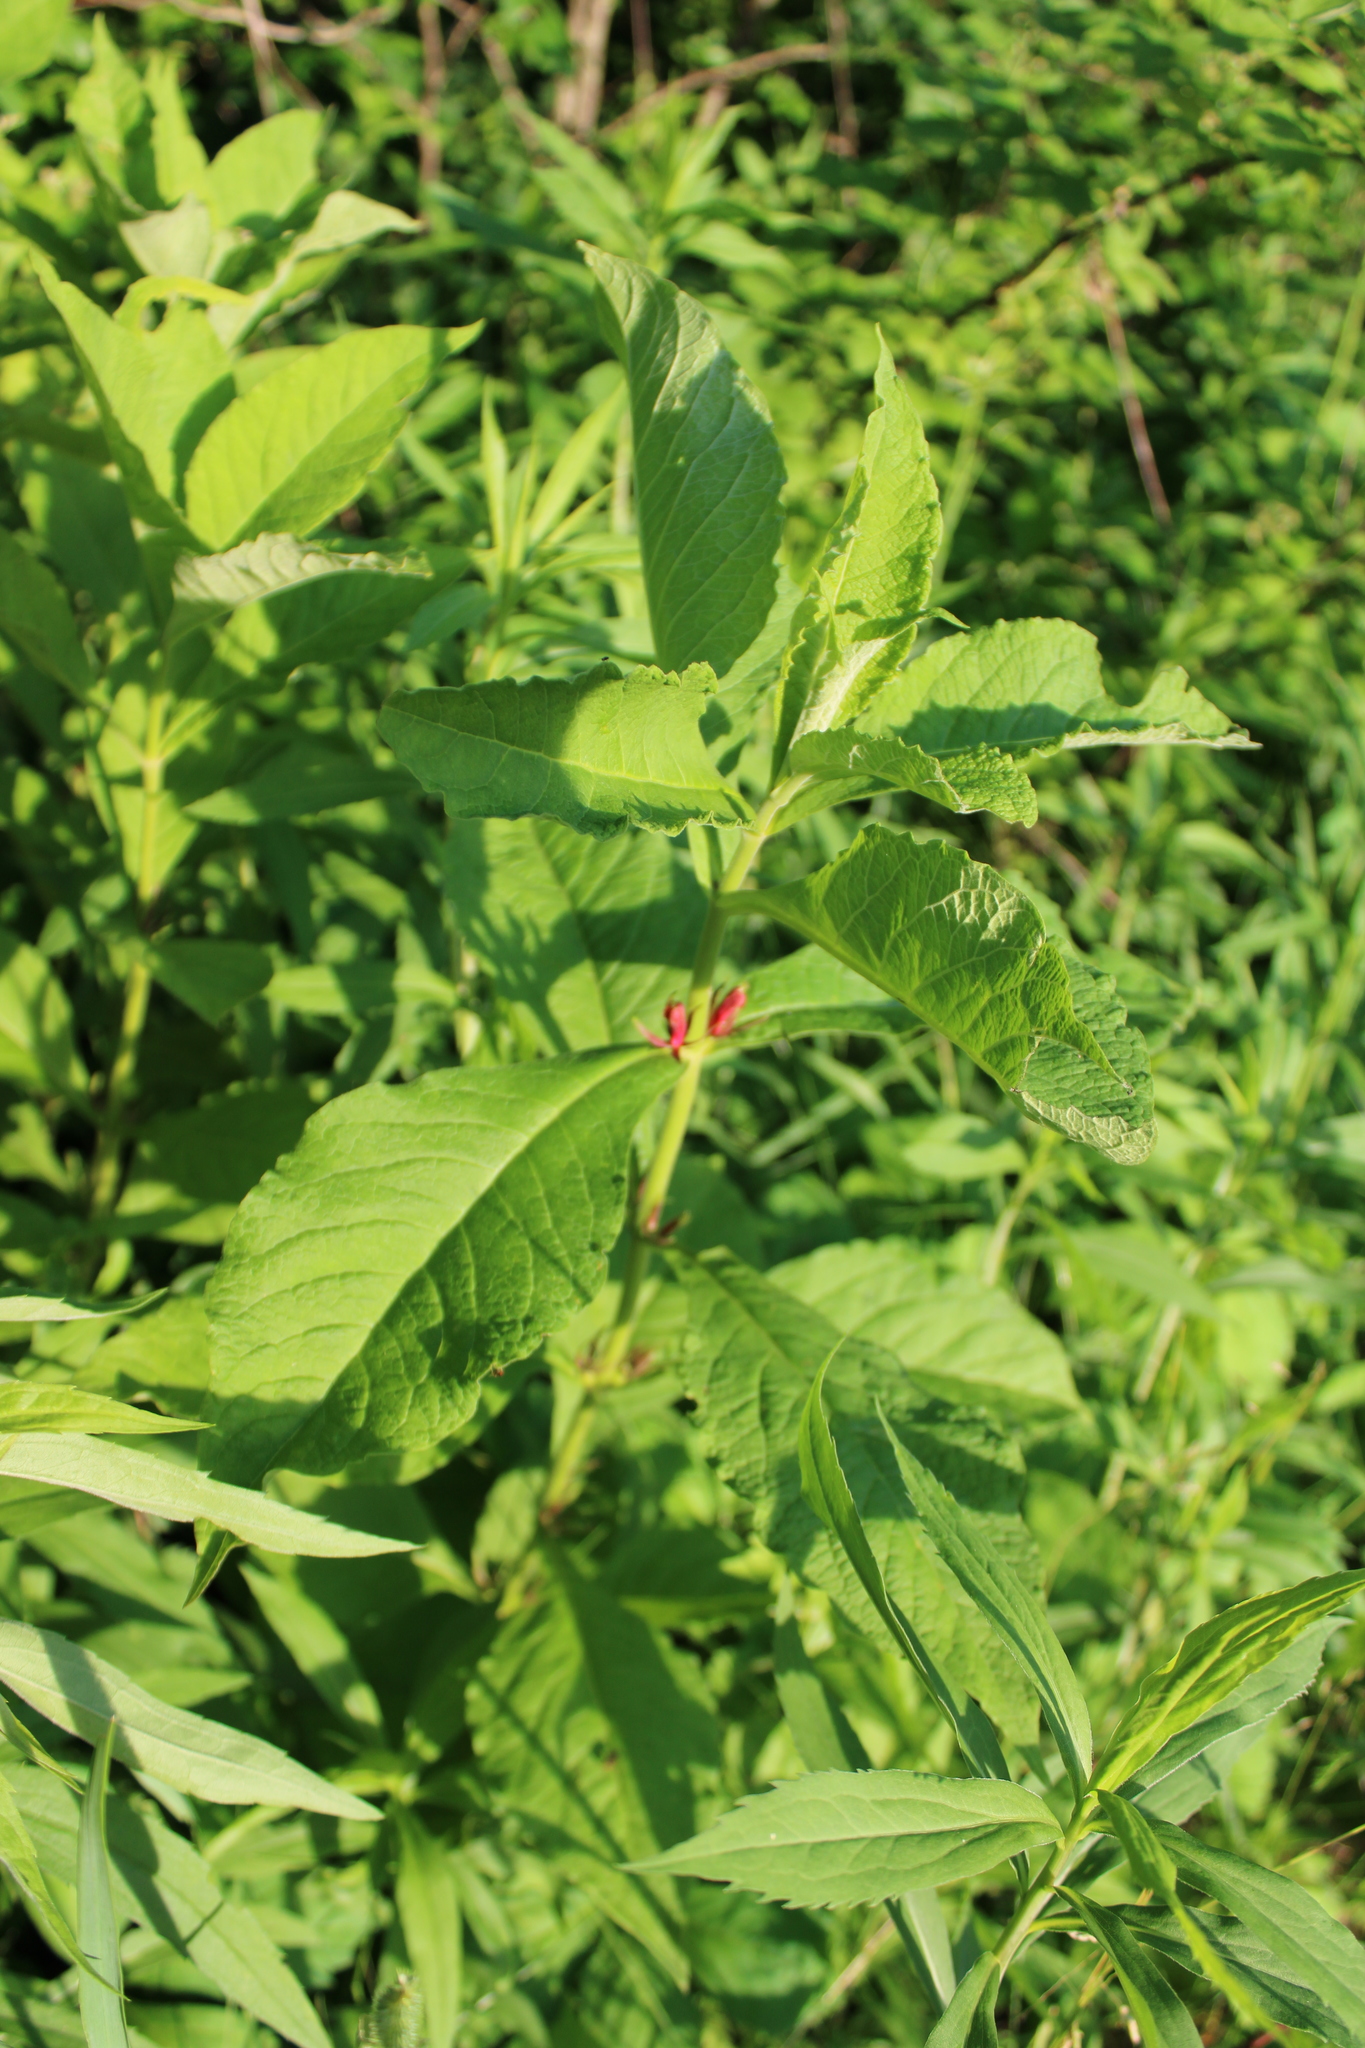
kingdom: Plantae
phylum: Tracheophyta
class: Magnoliopsida
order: Dipsacales
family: Caprifoliaceae
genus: Triosteum
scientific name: Triosteum aurantiacum
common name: Coffee tinker's-weed
